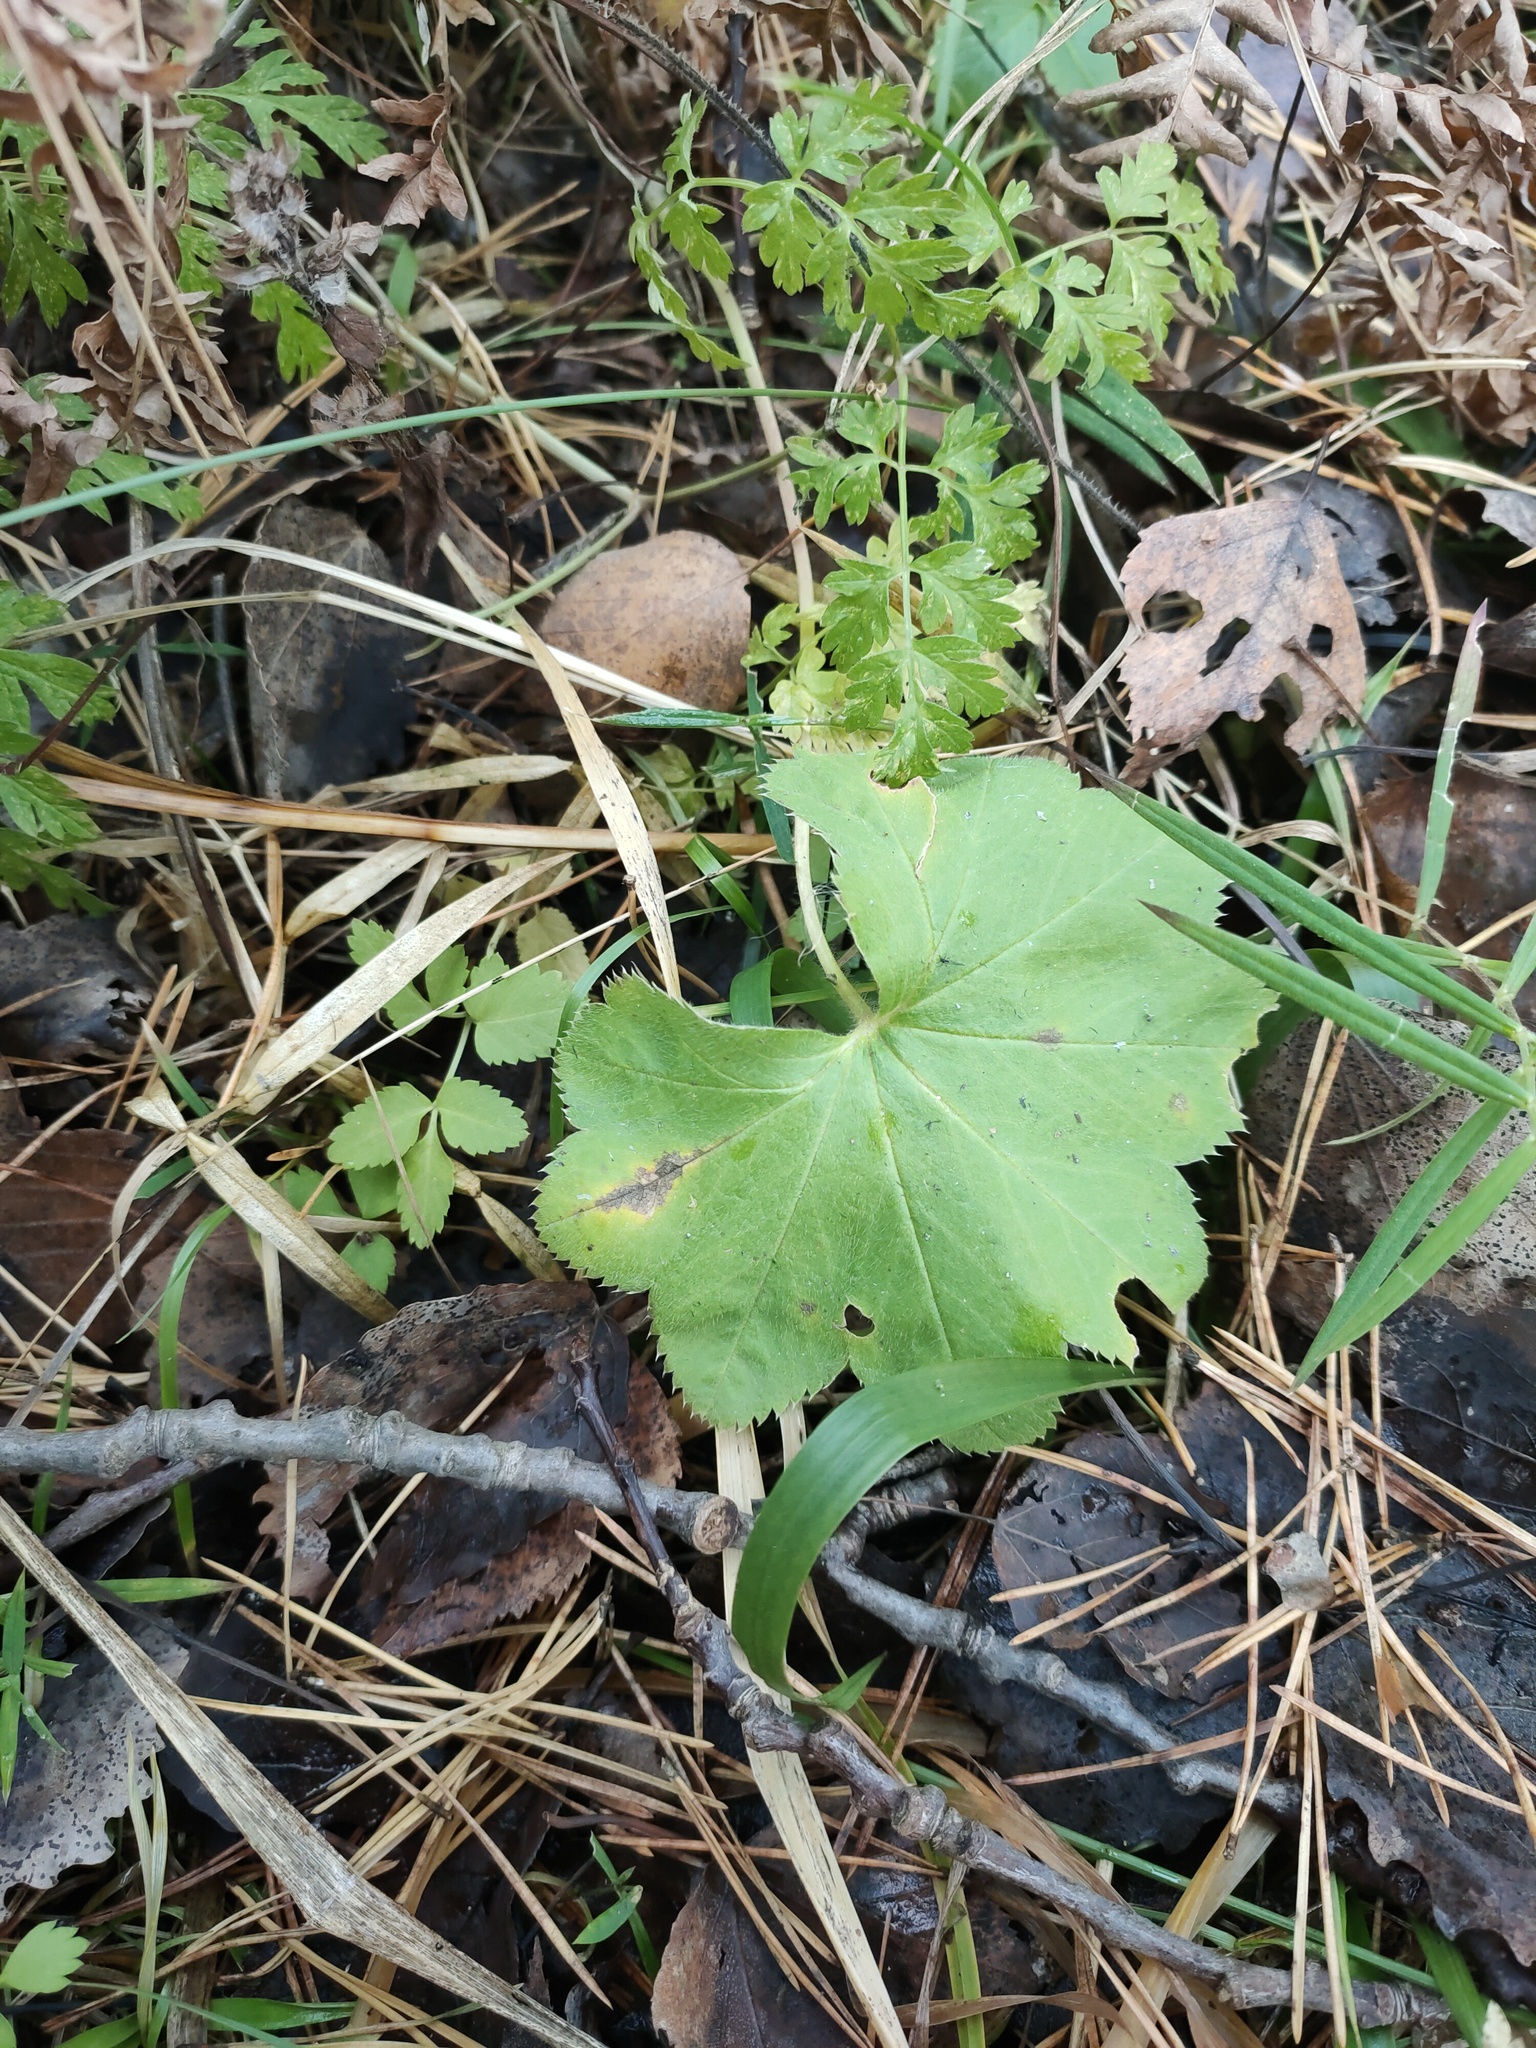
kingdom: Plantae
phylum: Tracheophyta
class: Magnoliopsida
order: Rosales
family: Rosaceae
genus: Alchemilla
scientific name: Alchemilla
